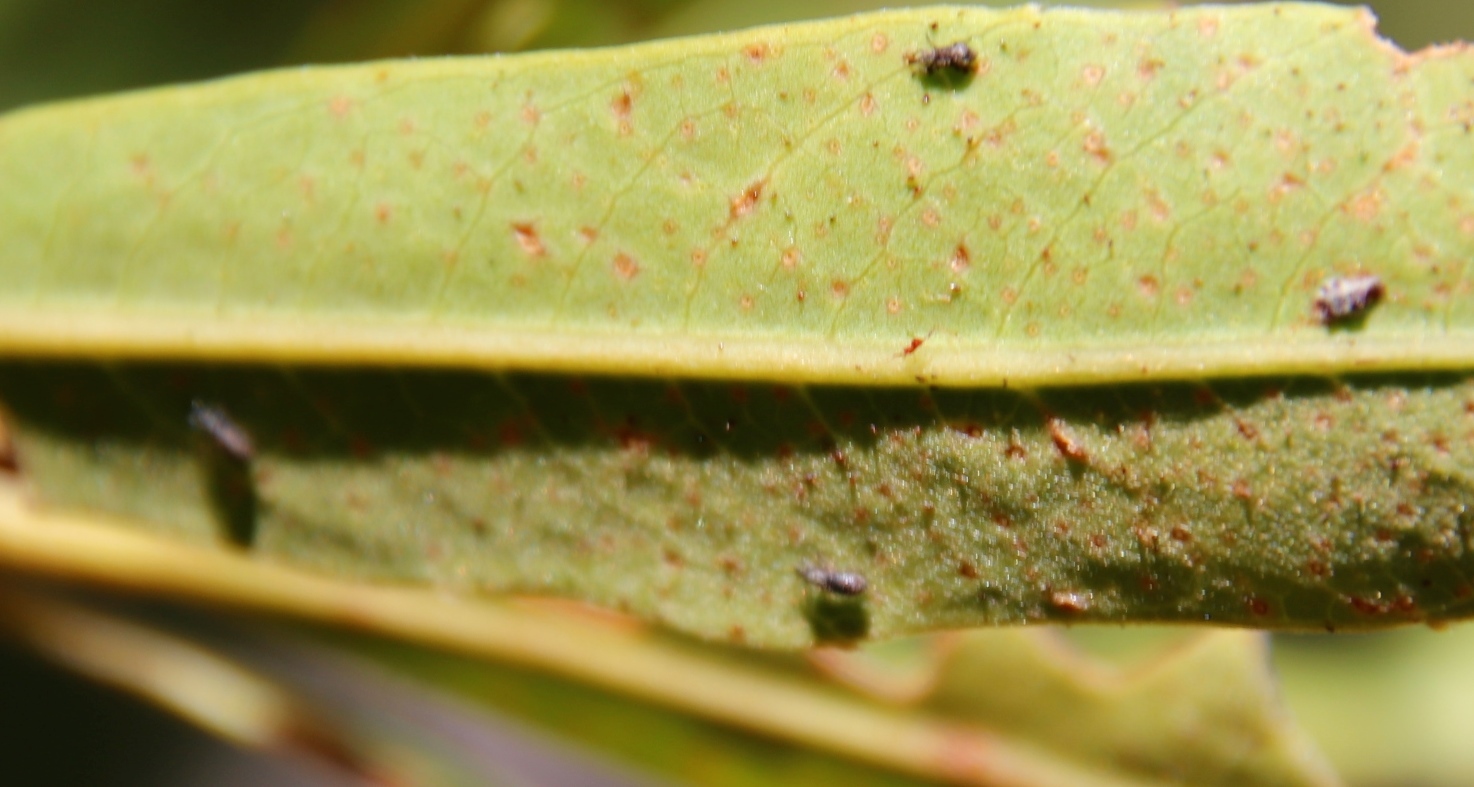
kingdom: Animalia
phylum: Arthropoda
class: Insecta
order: Coleoptera
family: Brentidae
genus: Setapion
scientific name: Setapion
